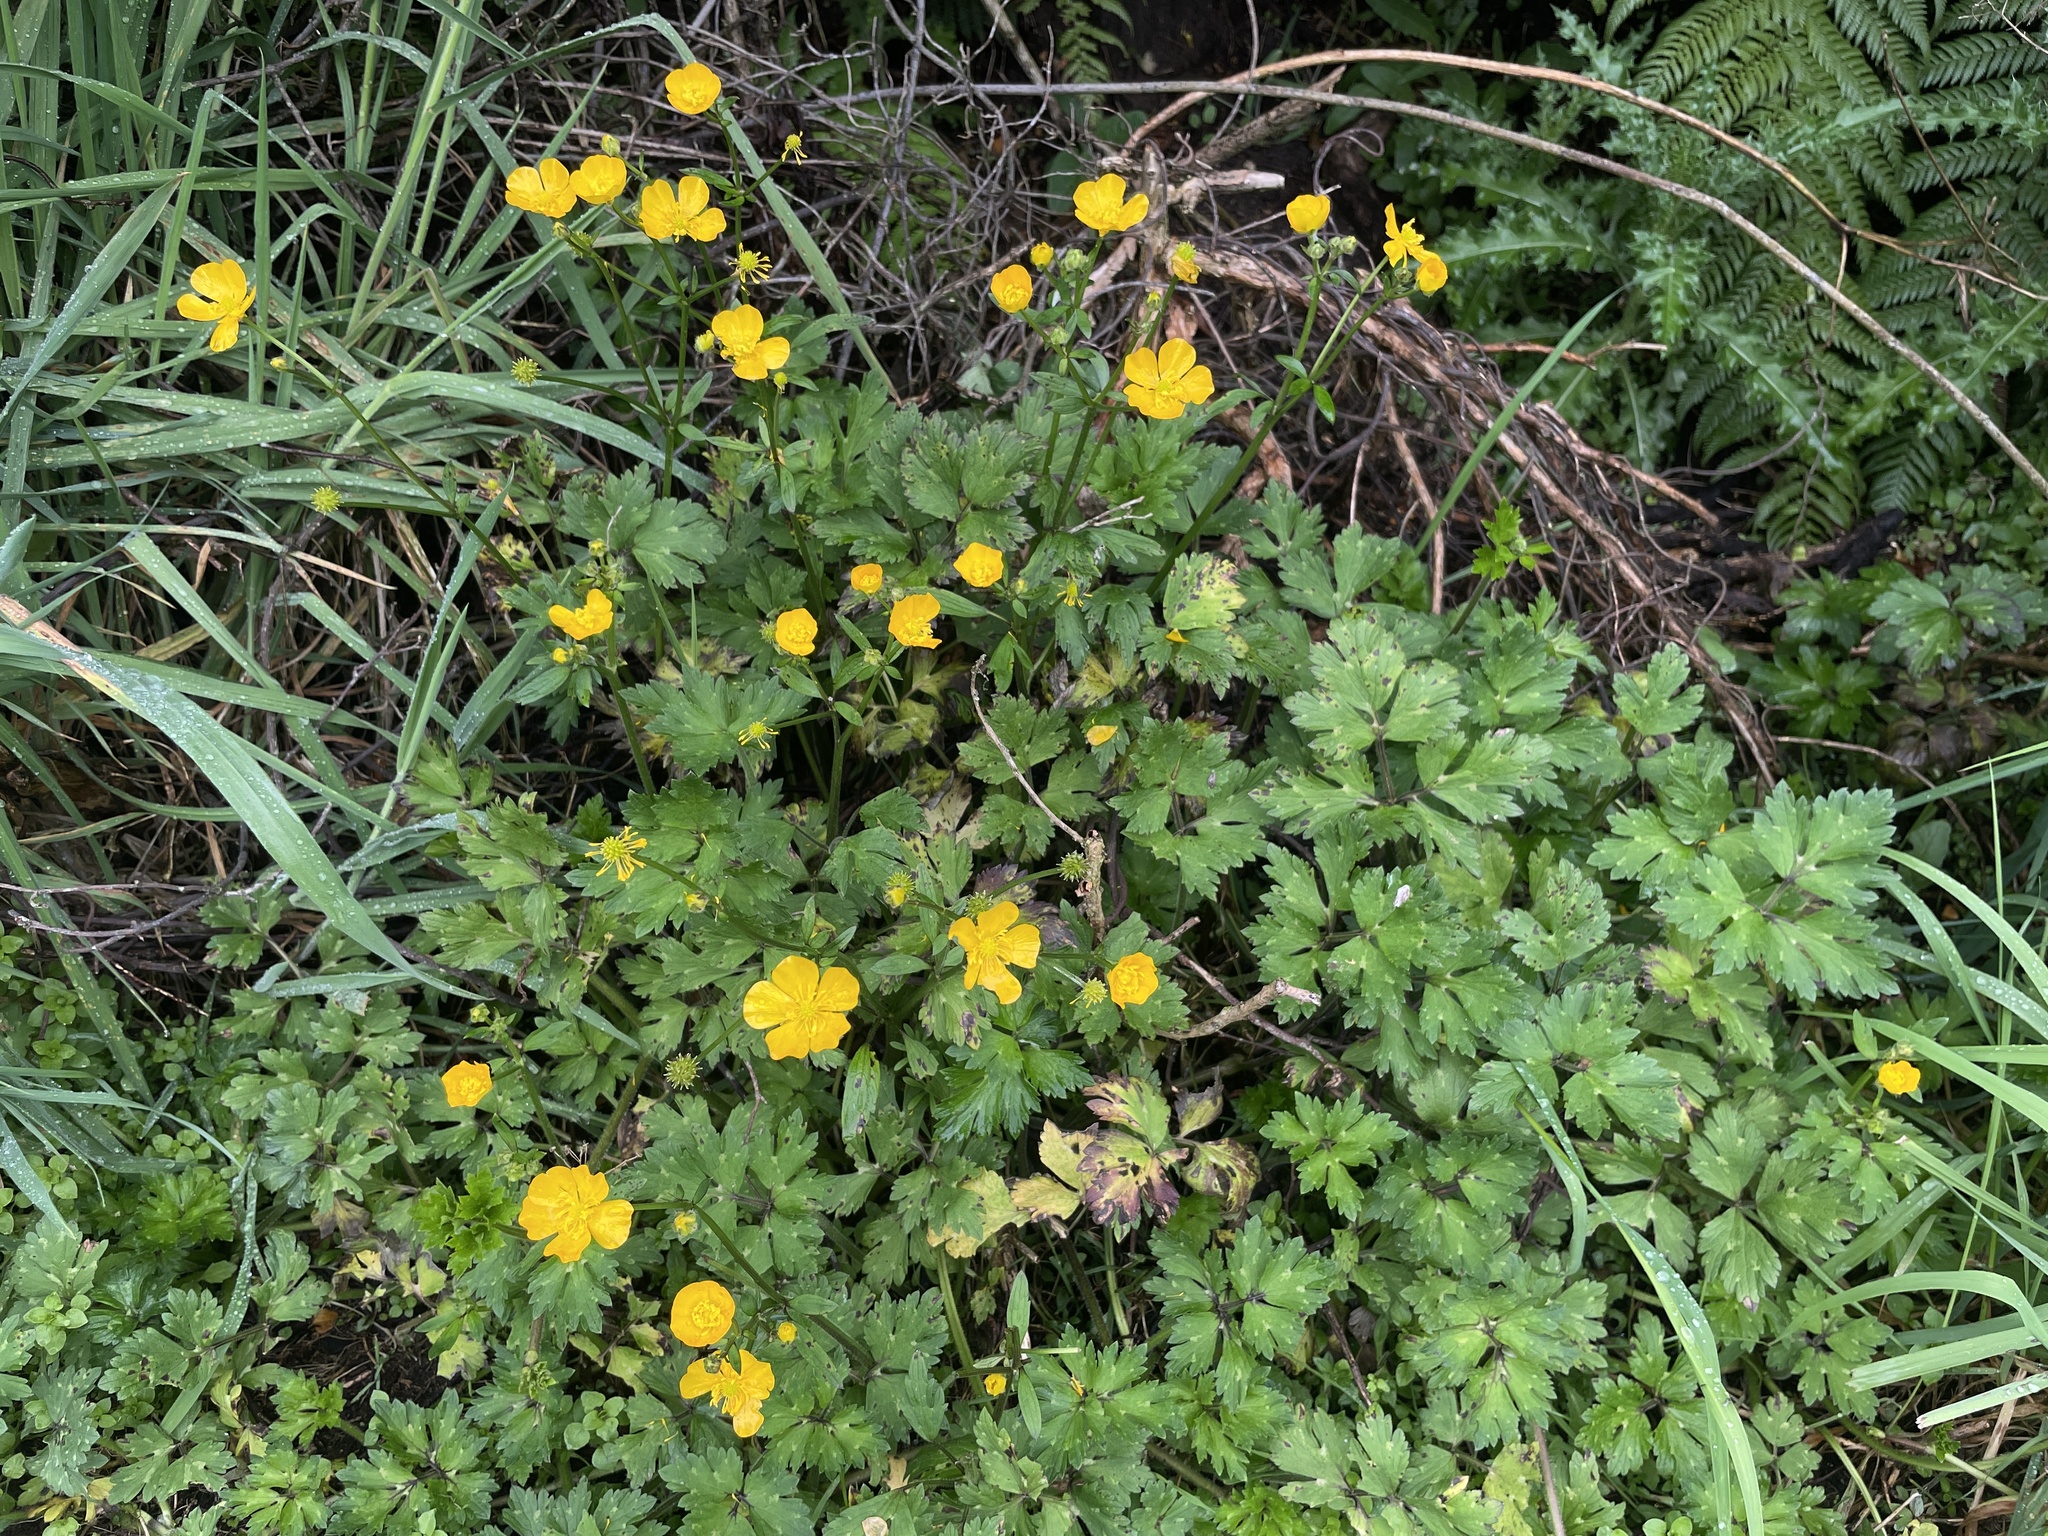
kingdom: Plantae
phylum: Tracheophyta
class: Magnoliopsida
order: Ranunculales
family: Ranunculaceae
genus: Ranunculus
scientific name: Ranunculus repens
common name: Creeping buttercup
